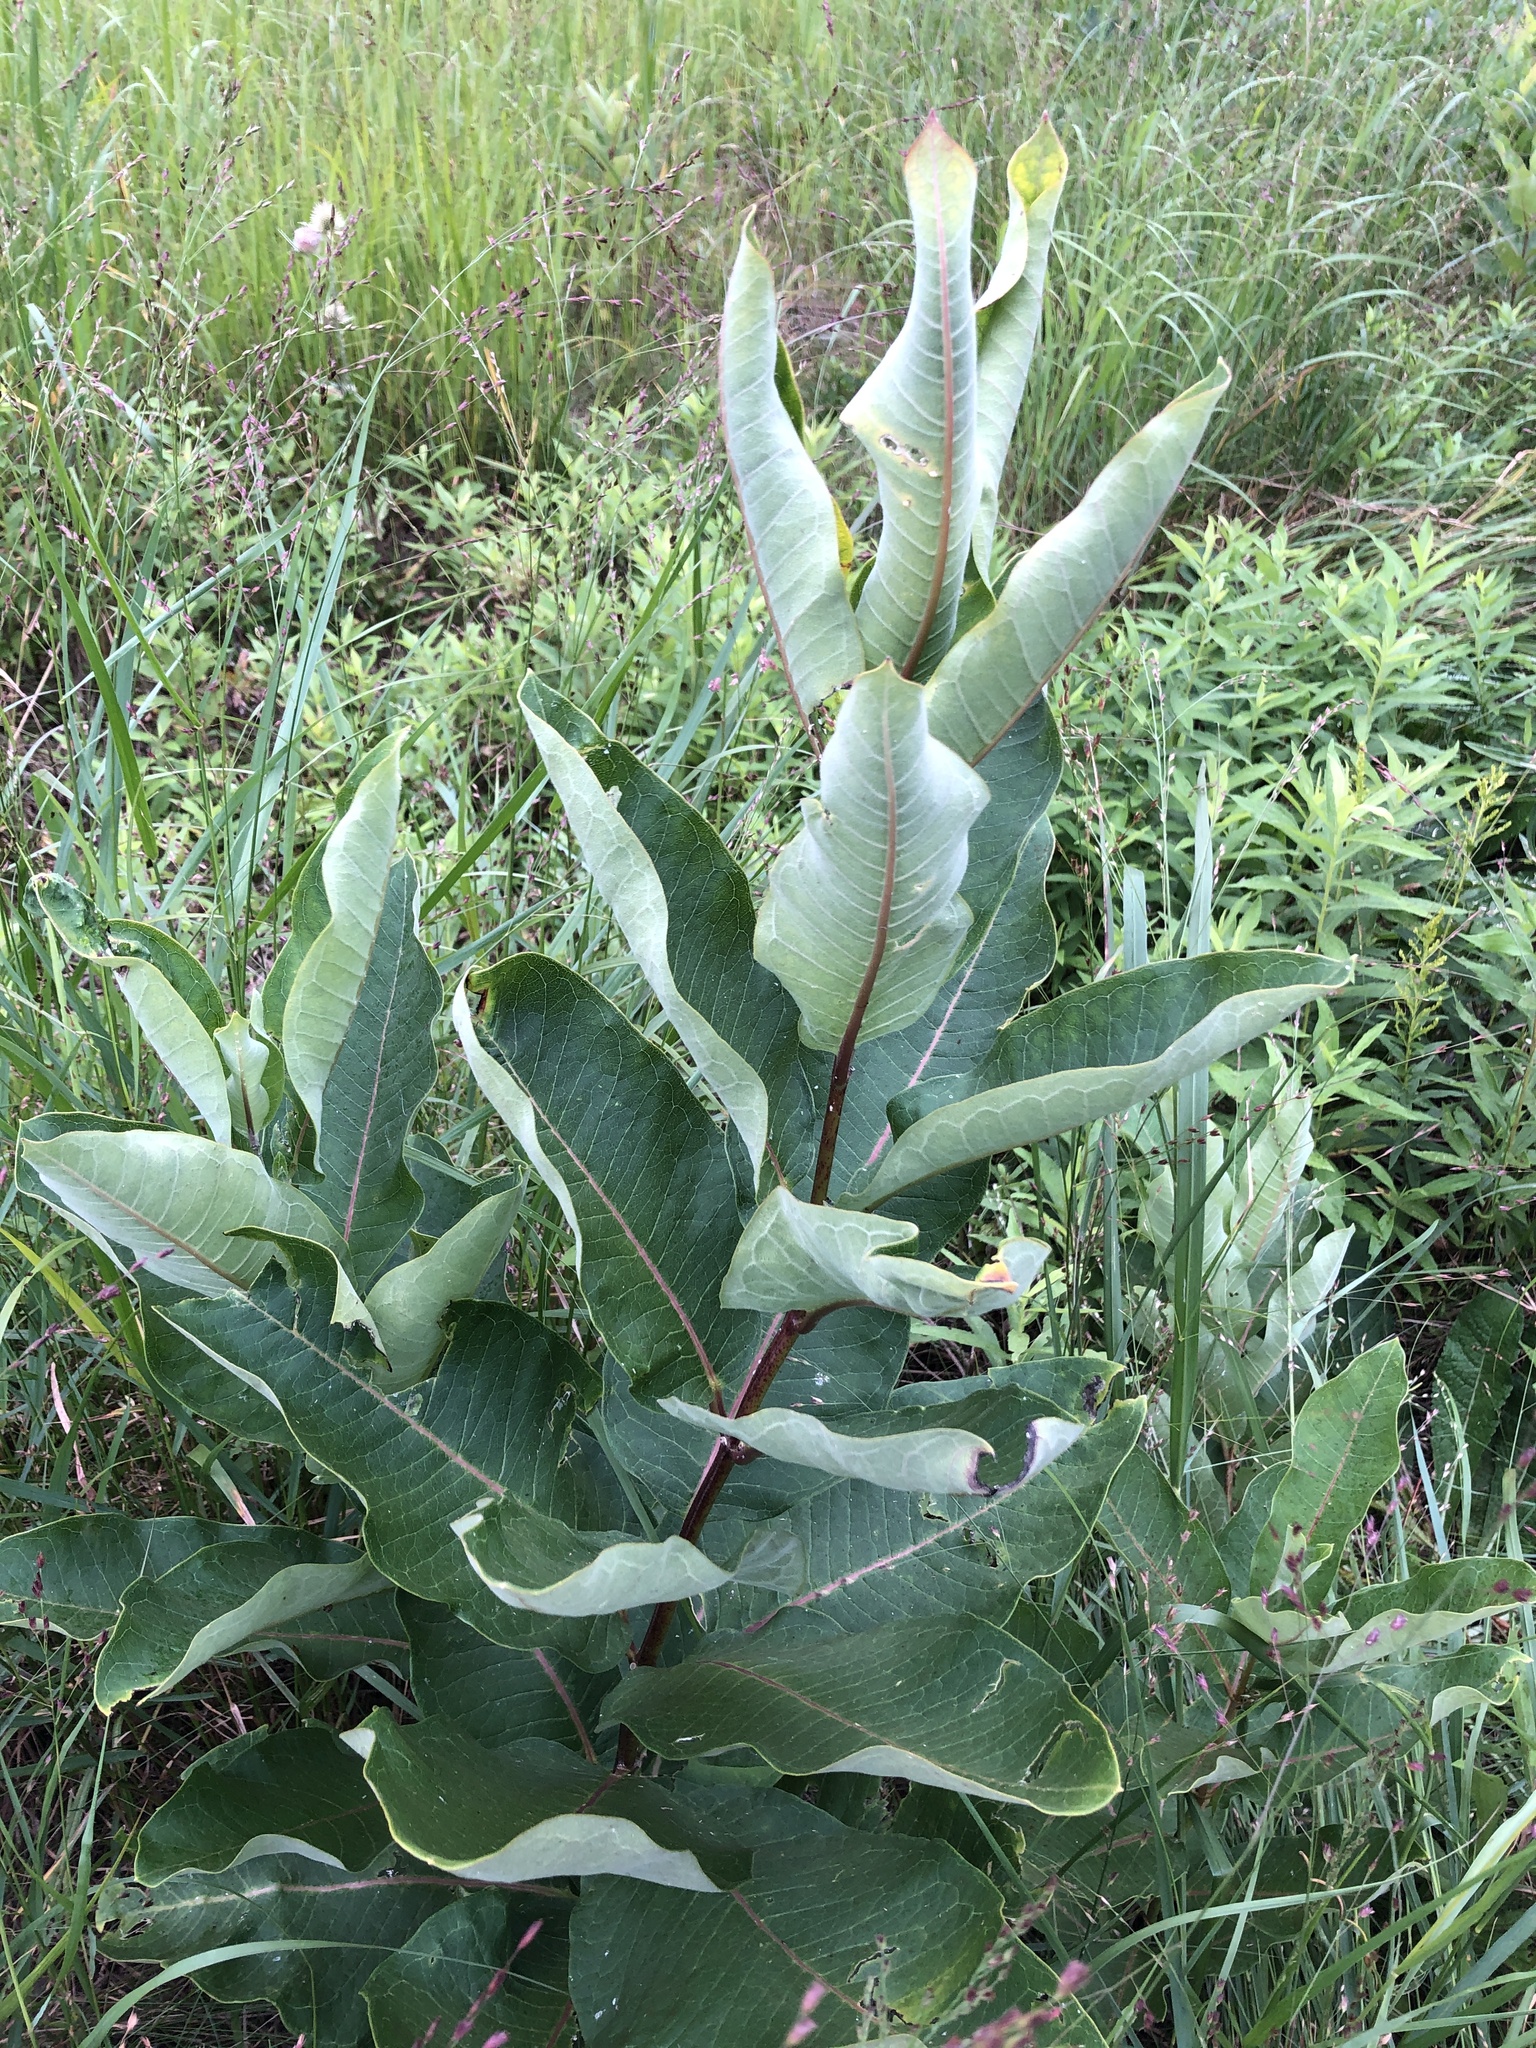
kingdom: Plantae
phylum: Tracheophyta
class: Magnoliopsida
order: Gentianales
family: Apocynaceae
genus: Asclepias
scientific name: Asclepias syriaca
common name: Common milkweed
